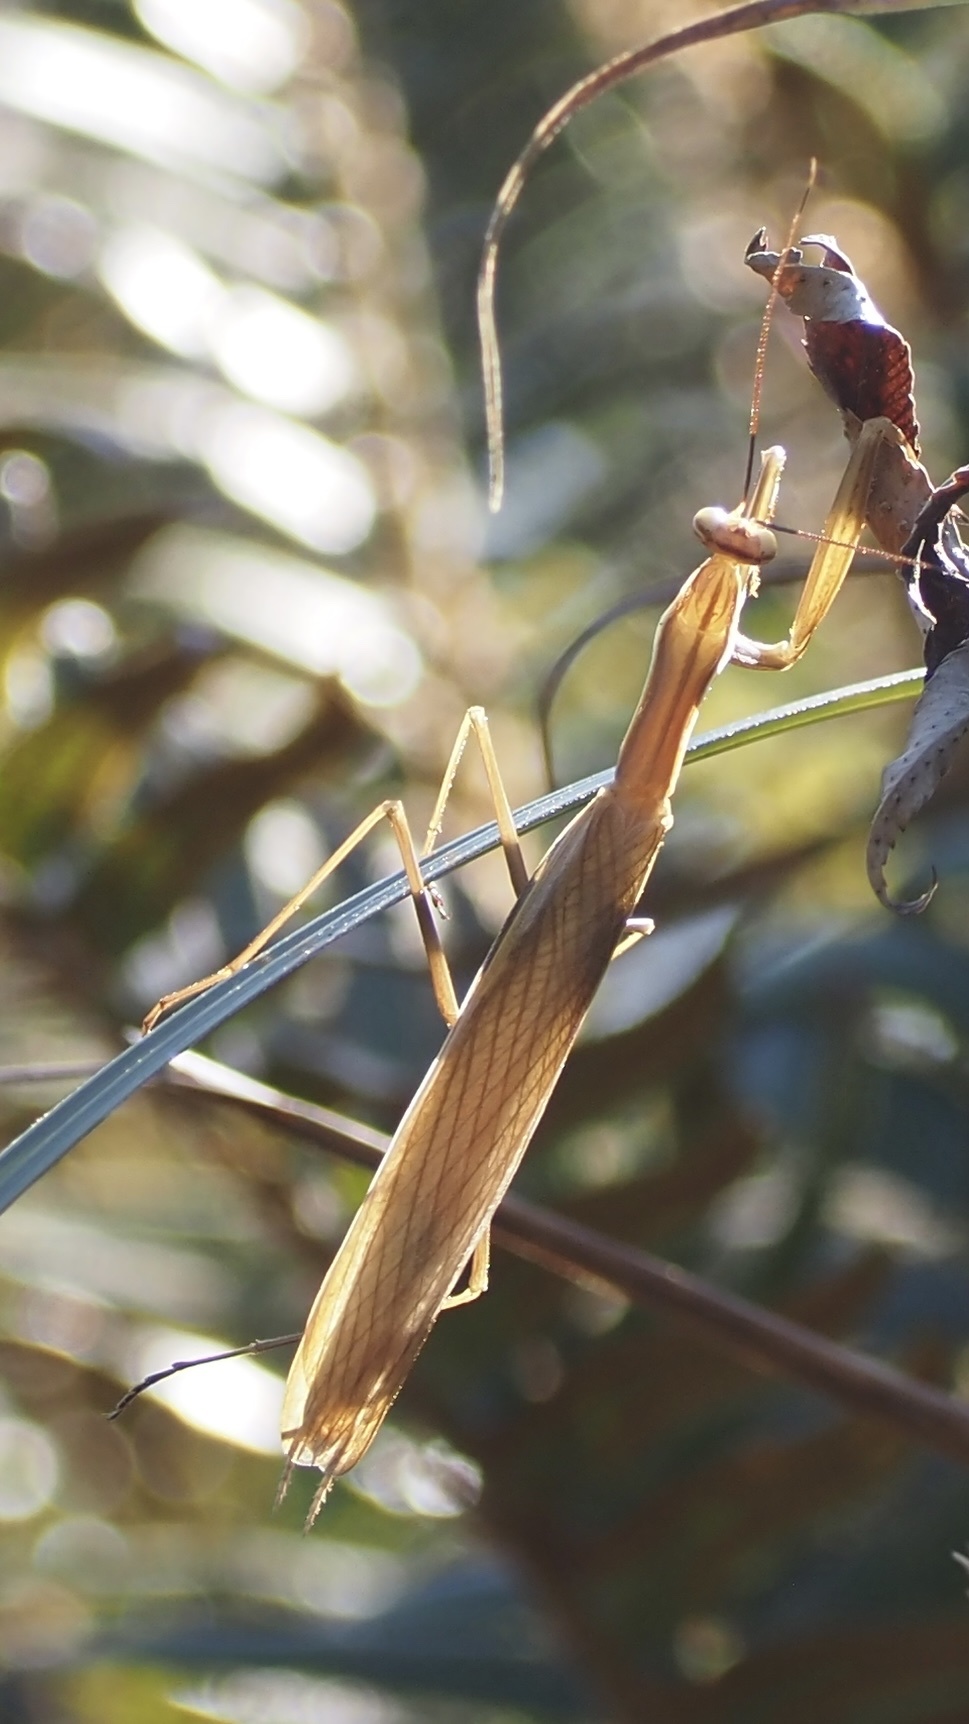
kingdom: Animalia
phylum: Arthropoda
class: Insecta
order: Mantodea
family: Mantidae
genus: Mantis
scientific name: Mantis religiosa
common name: Praying mantis
